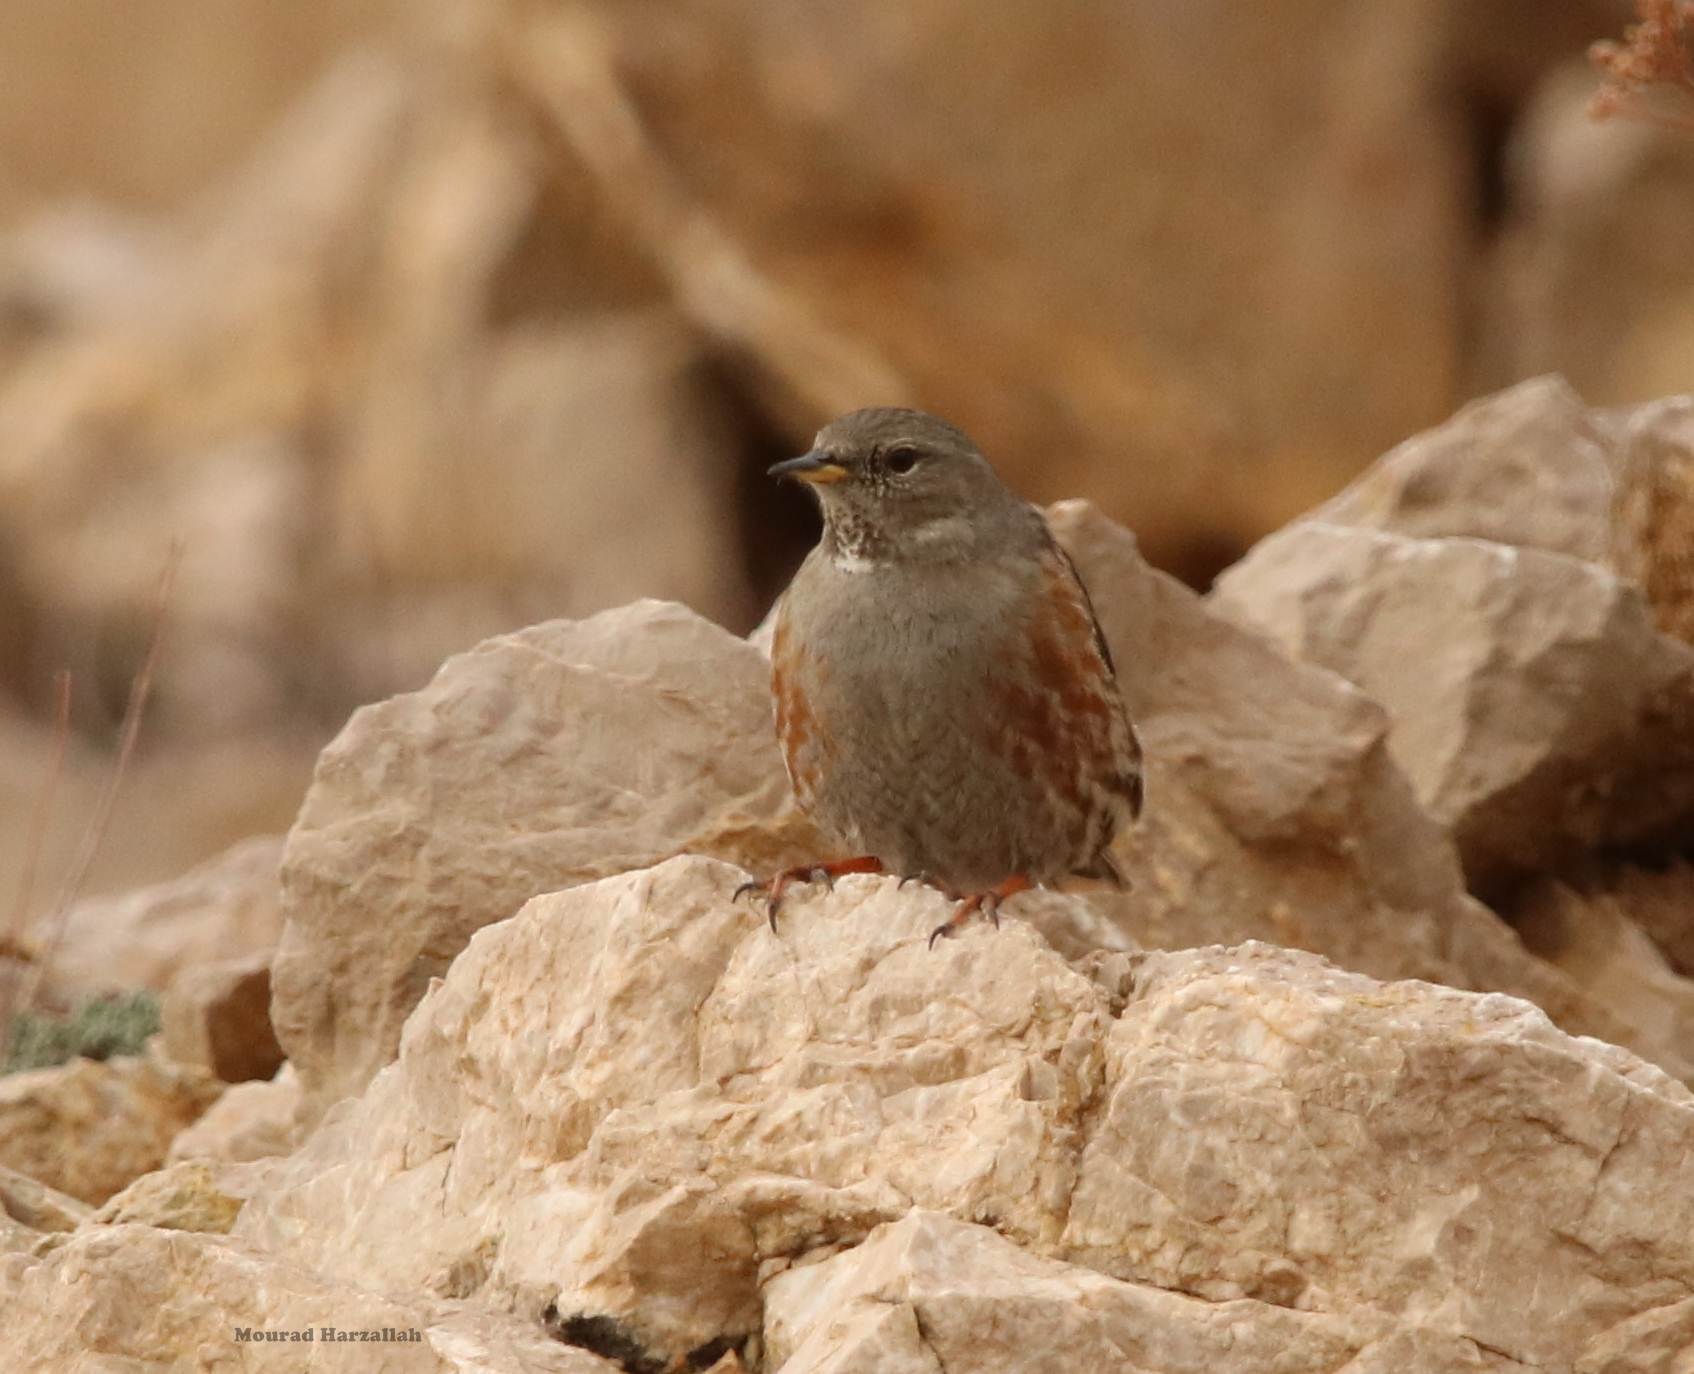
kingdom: Animalia
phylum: Chordata
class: Aves
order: Passeriformes
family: Prunellidae
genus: Prunella
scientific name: Prunella collaris
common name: Alpine accentor
